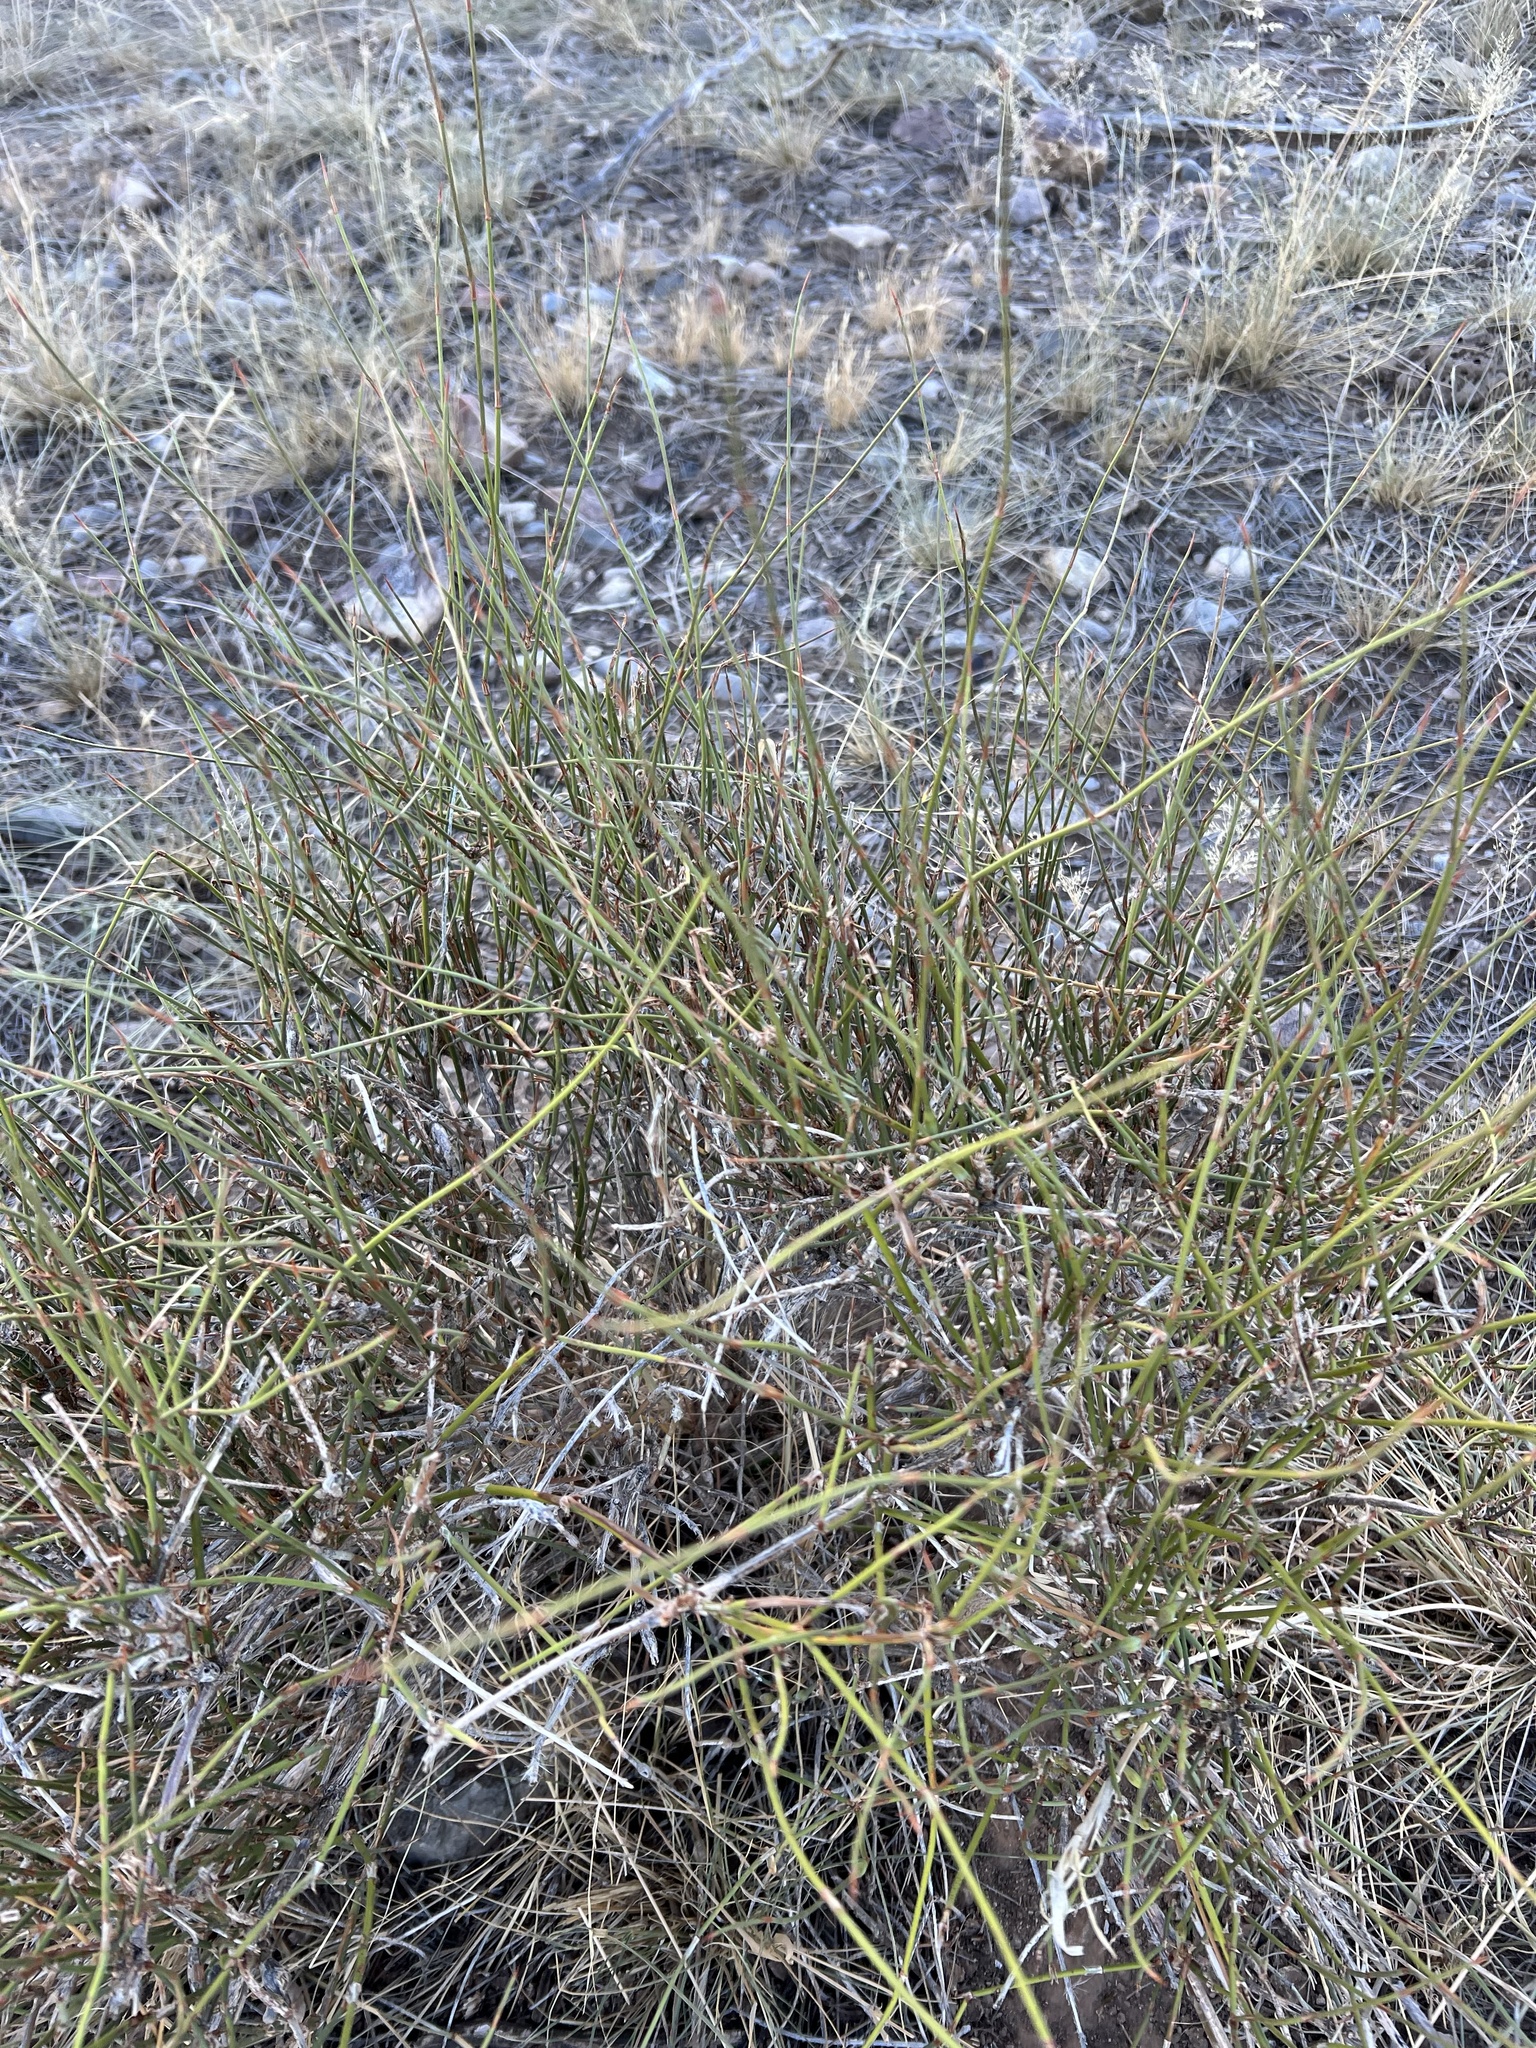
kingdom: Plantae
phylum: Tracheophyta
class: Gnetopsida
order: Ephedrales
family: Ephedraceae
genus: Ephedra
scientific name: Ephedra trifurca
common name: Mexican-tea
